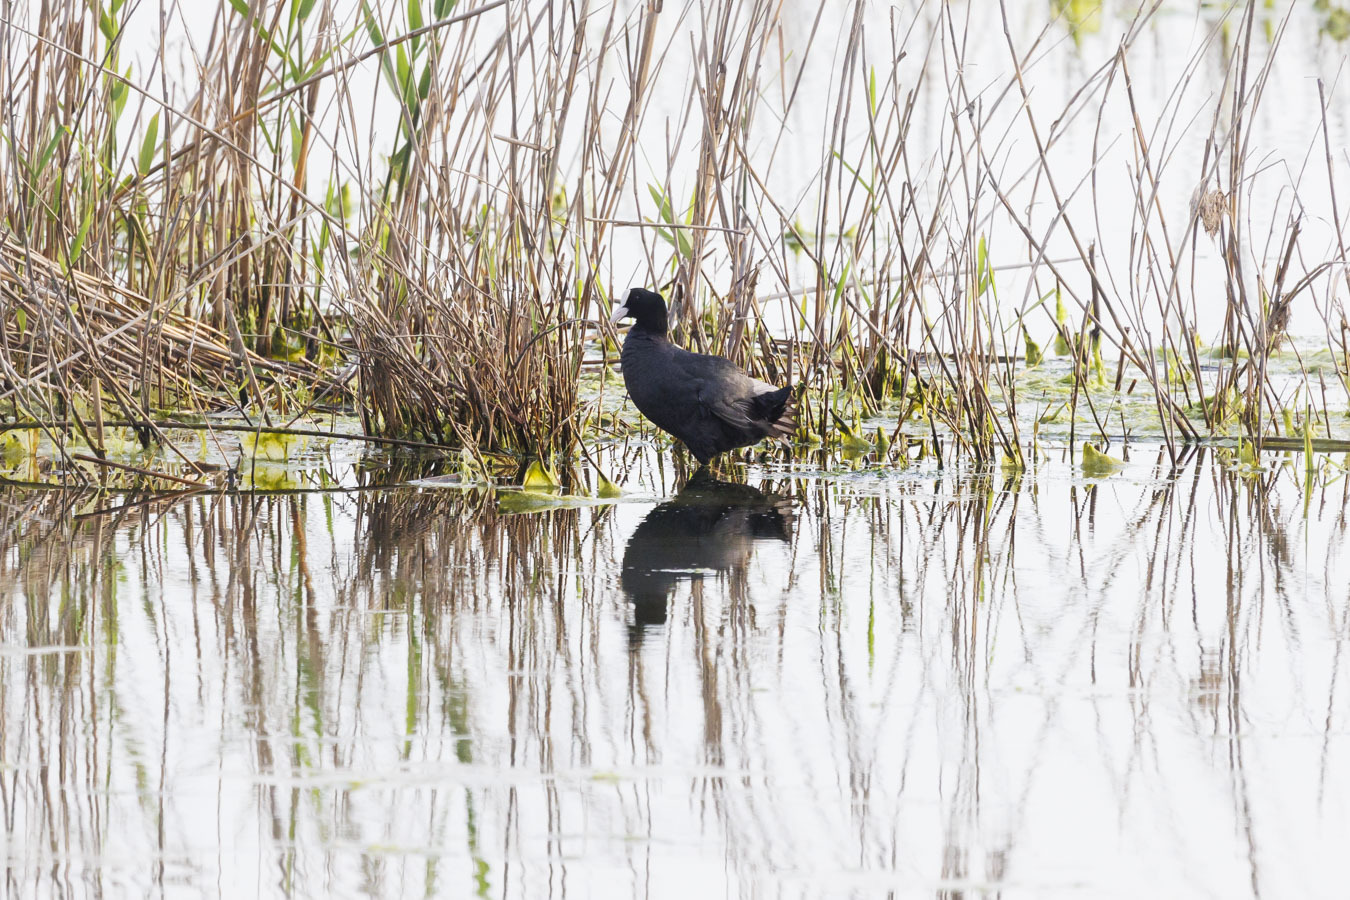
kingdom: Animalia
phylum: Chordata
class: Aves
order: Gruiformes
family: Rallidae
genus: Fulica
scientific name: Fulica atra
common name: Eurasian coot
